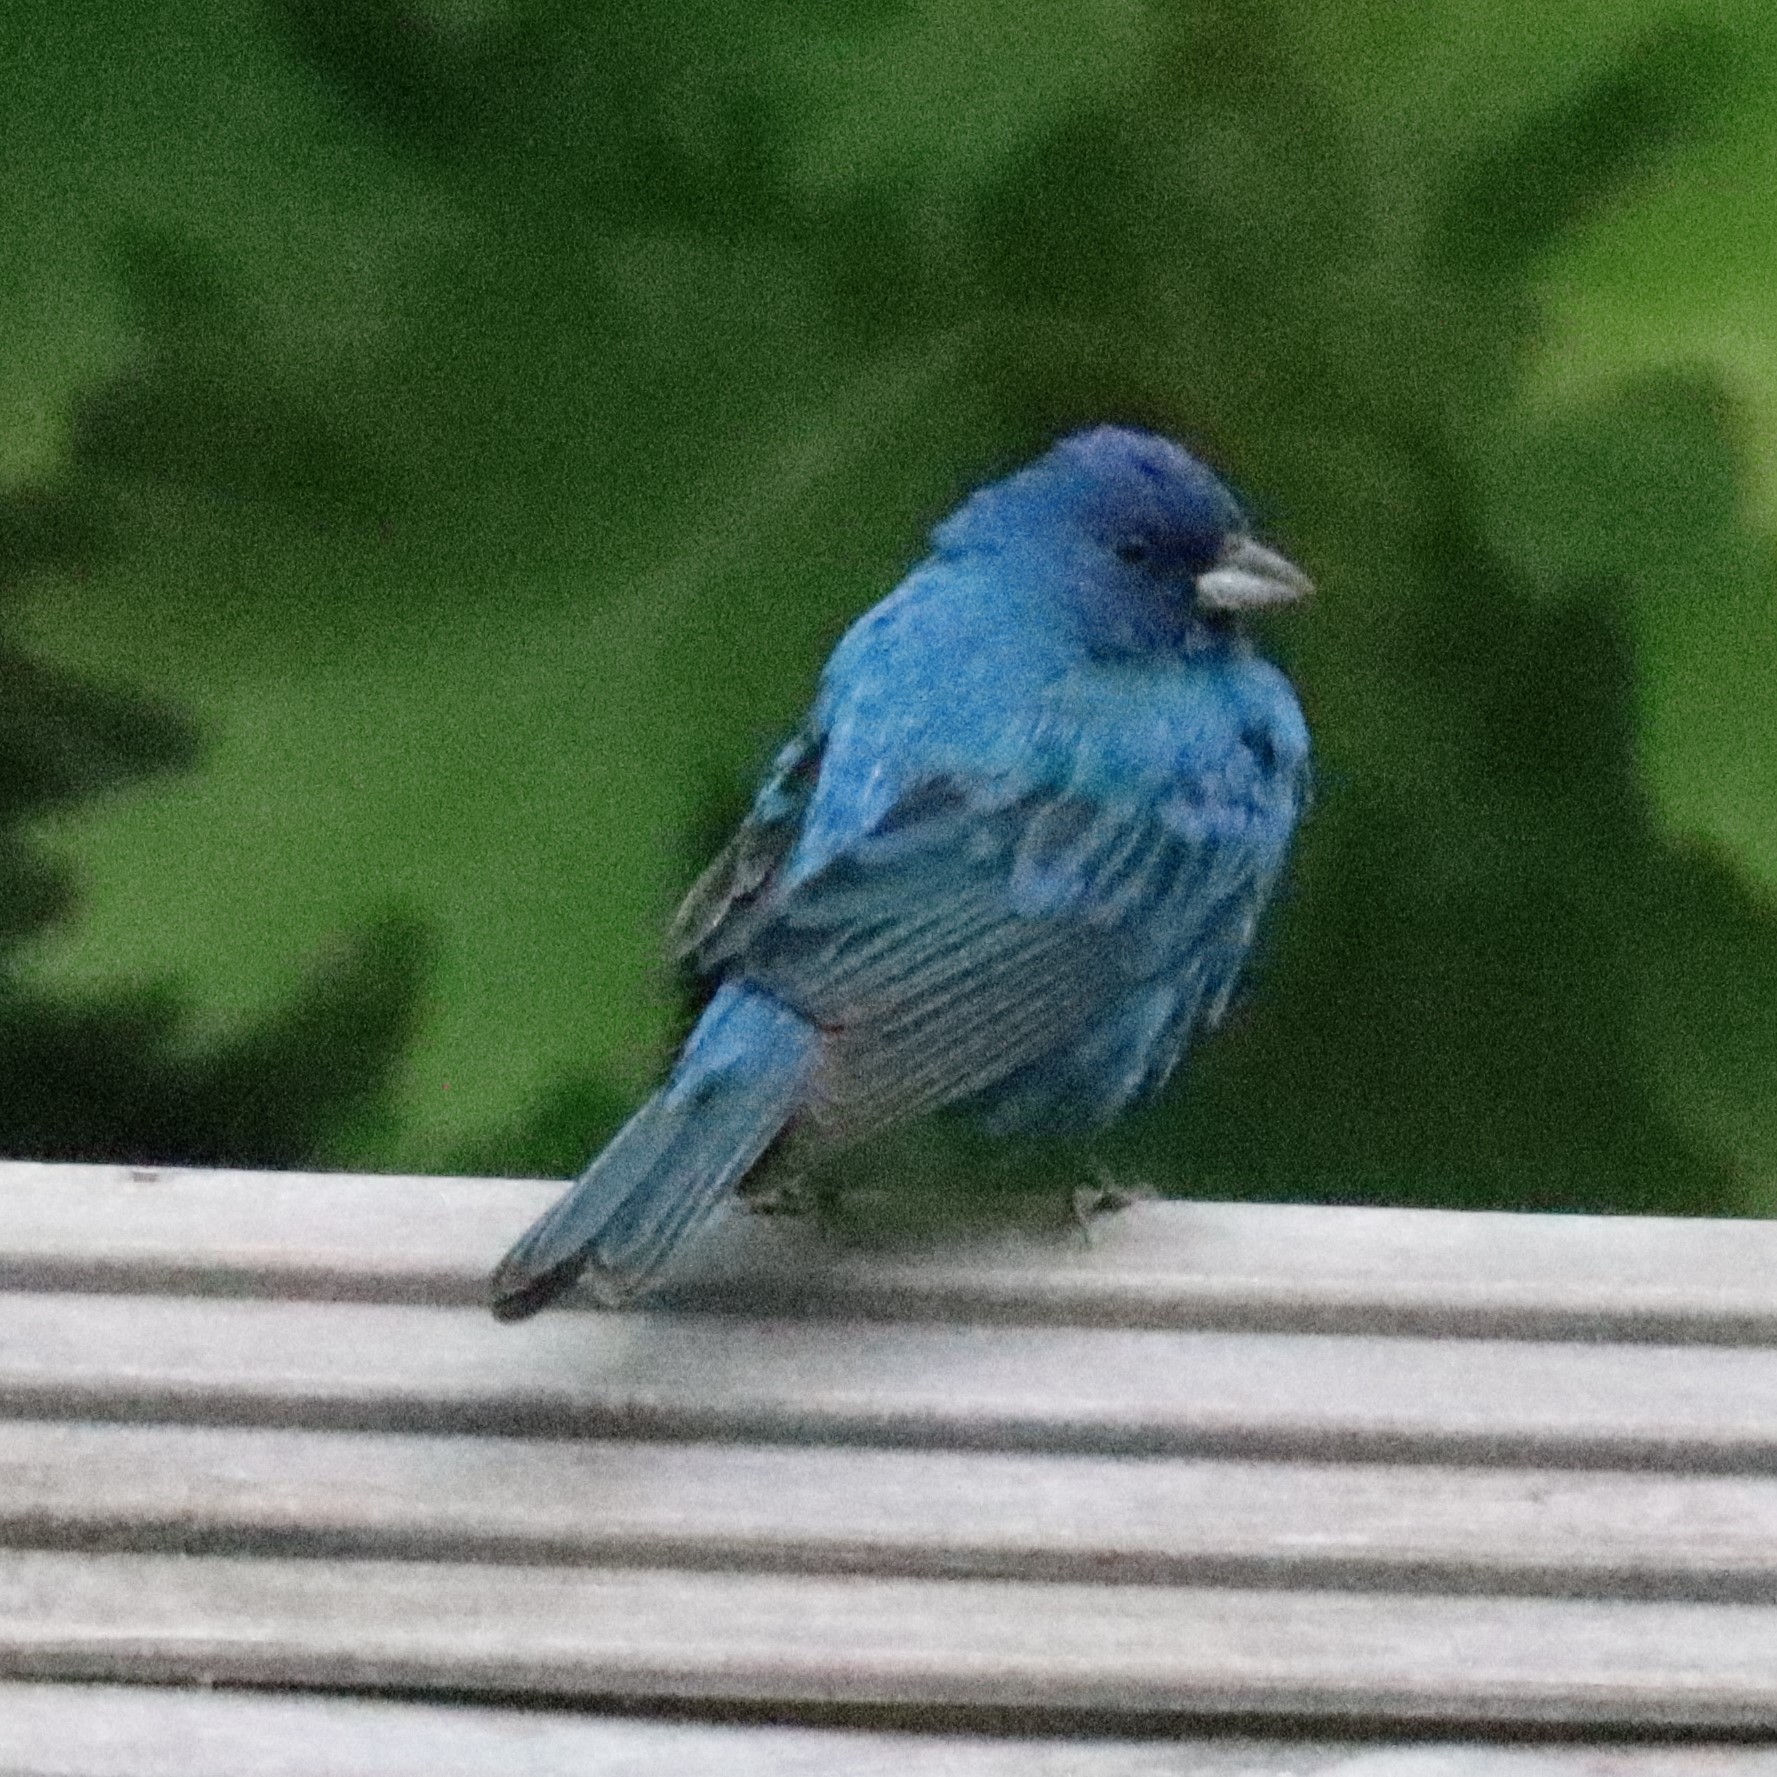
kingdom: Animalia
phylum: Chordata
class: Aves
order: Passeriformes
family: Cardinalidae
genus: Passerina
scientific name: Passerina cyanea
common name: Indigo bunting
